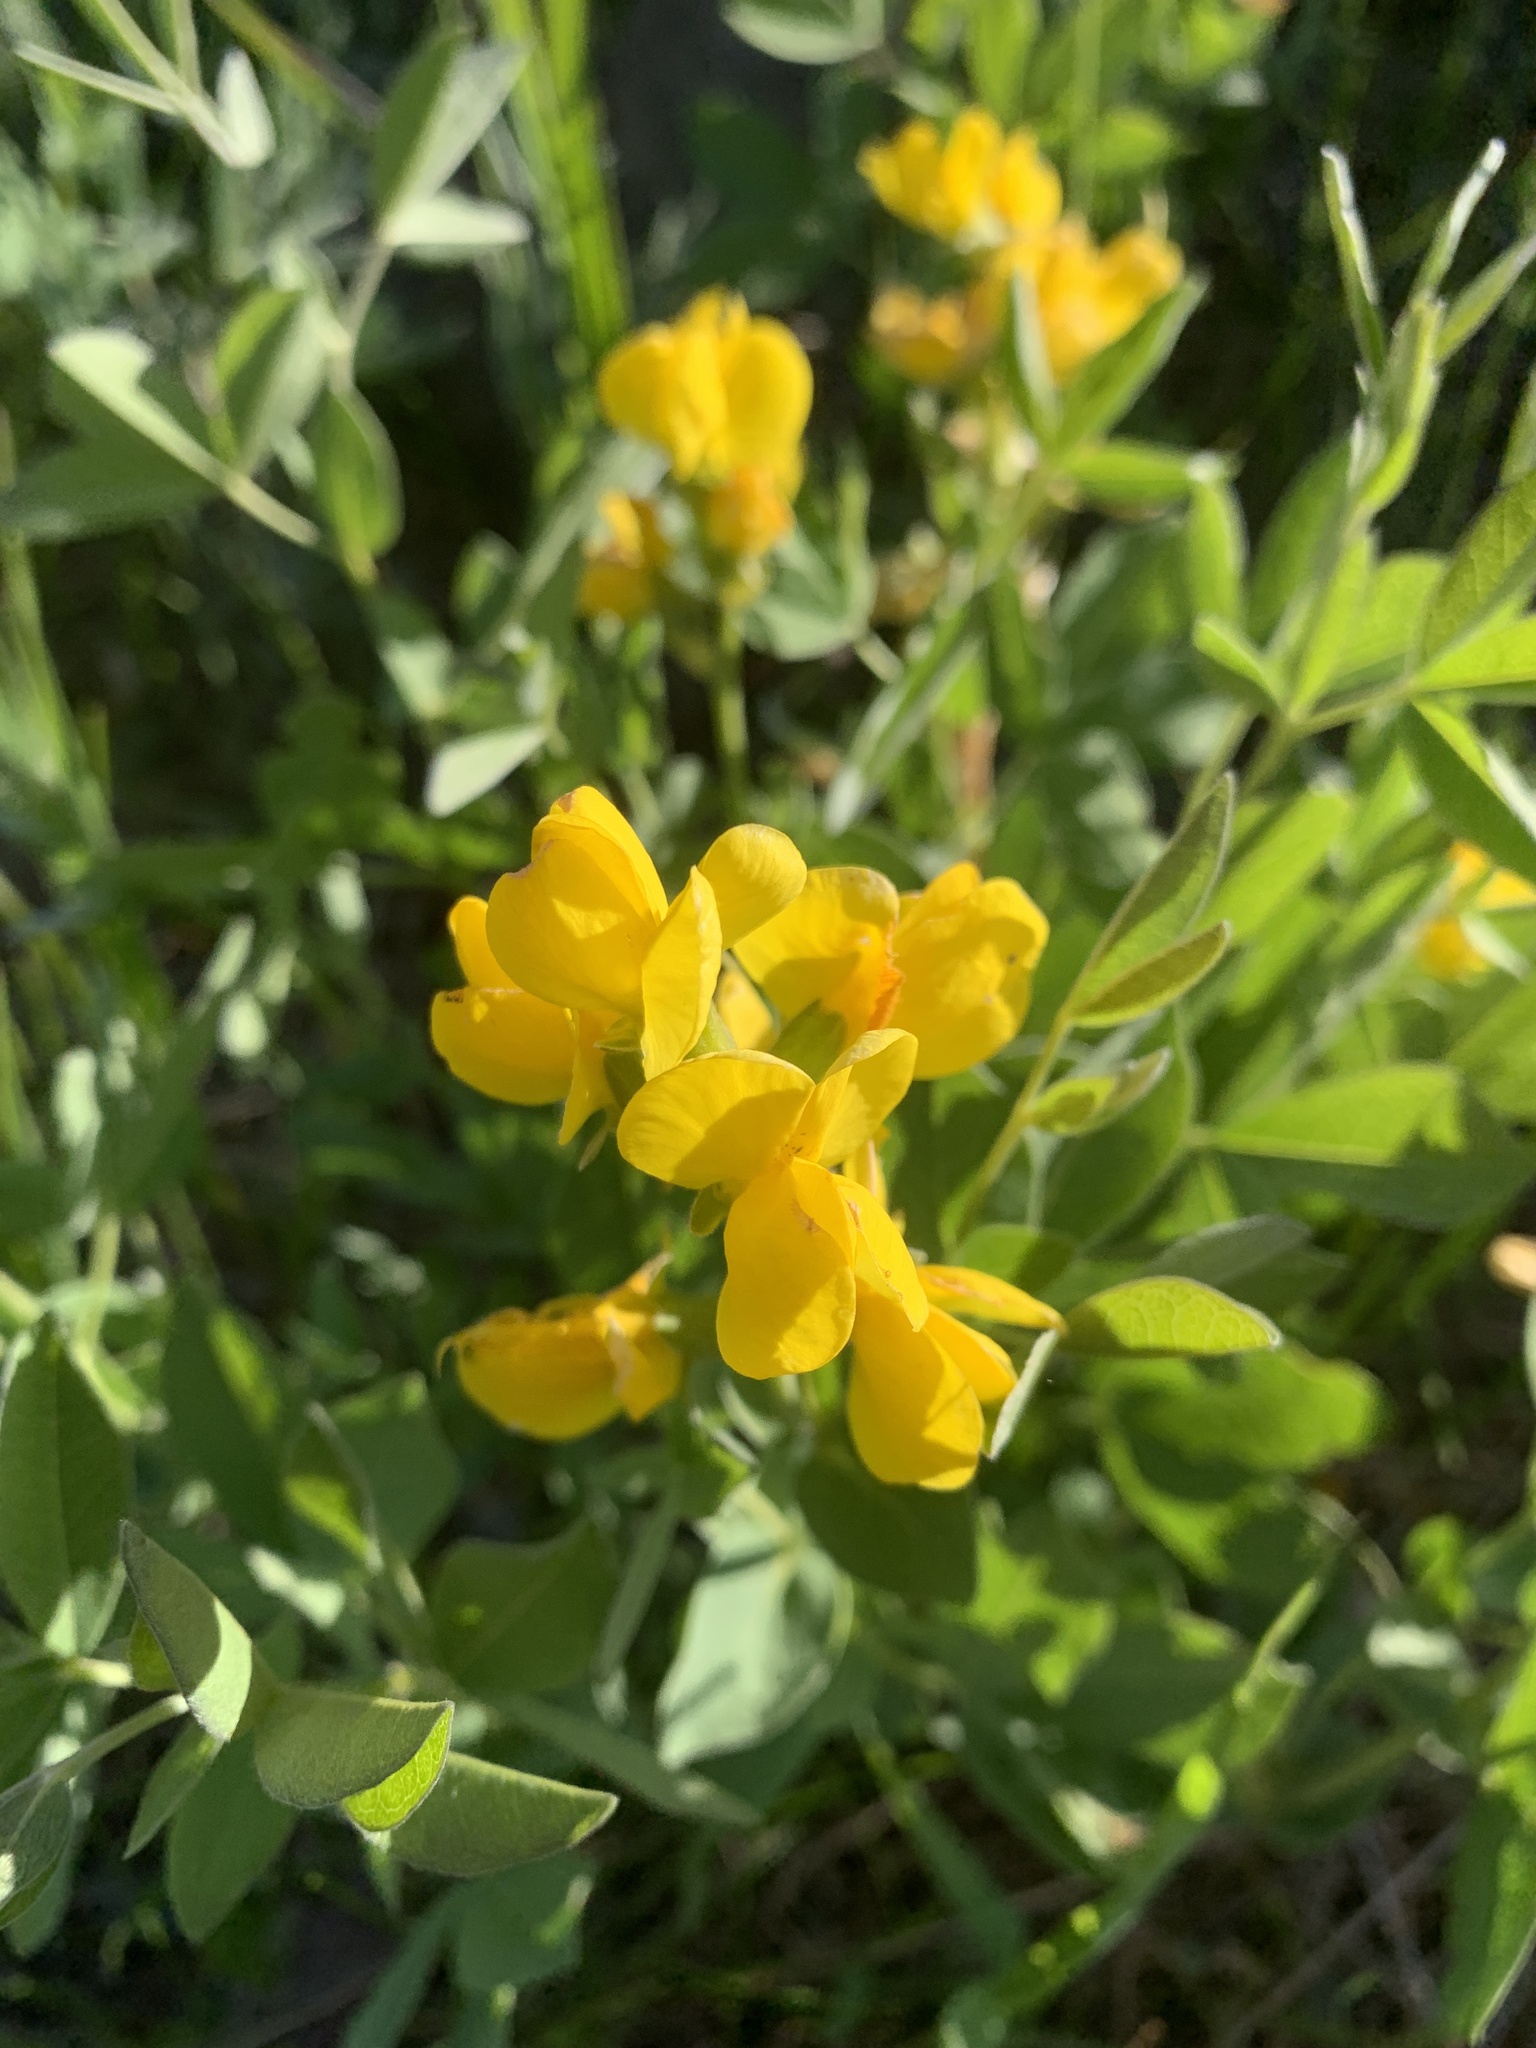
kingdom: Plantae
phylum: Tracheophyta
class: Magnoliopsida
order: Fabales
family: Fabaceae
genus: Thermopsis
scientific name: Thermopsis rhombifolia
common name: Circle-pod-pea
